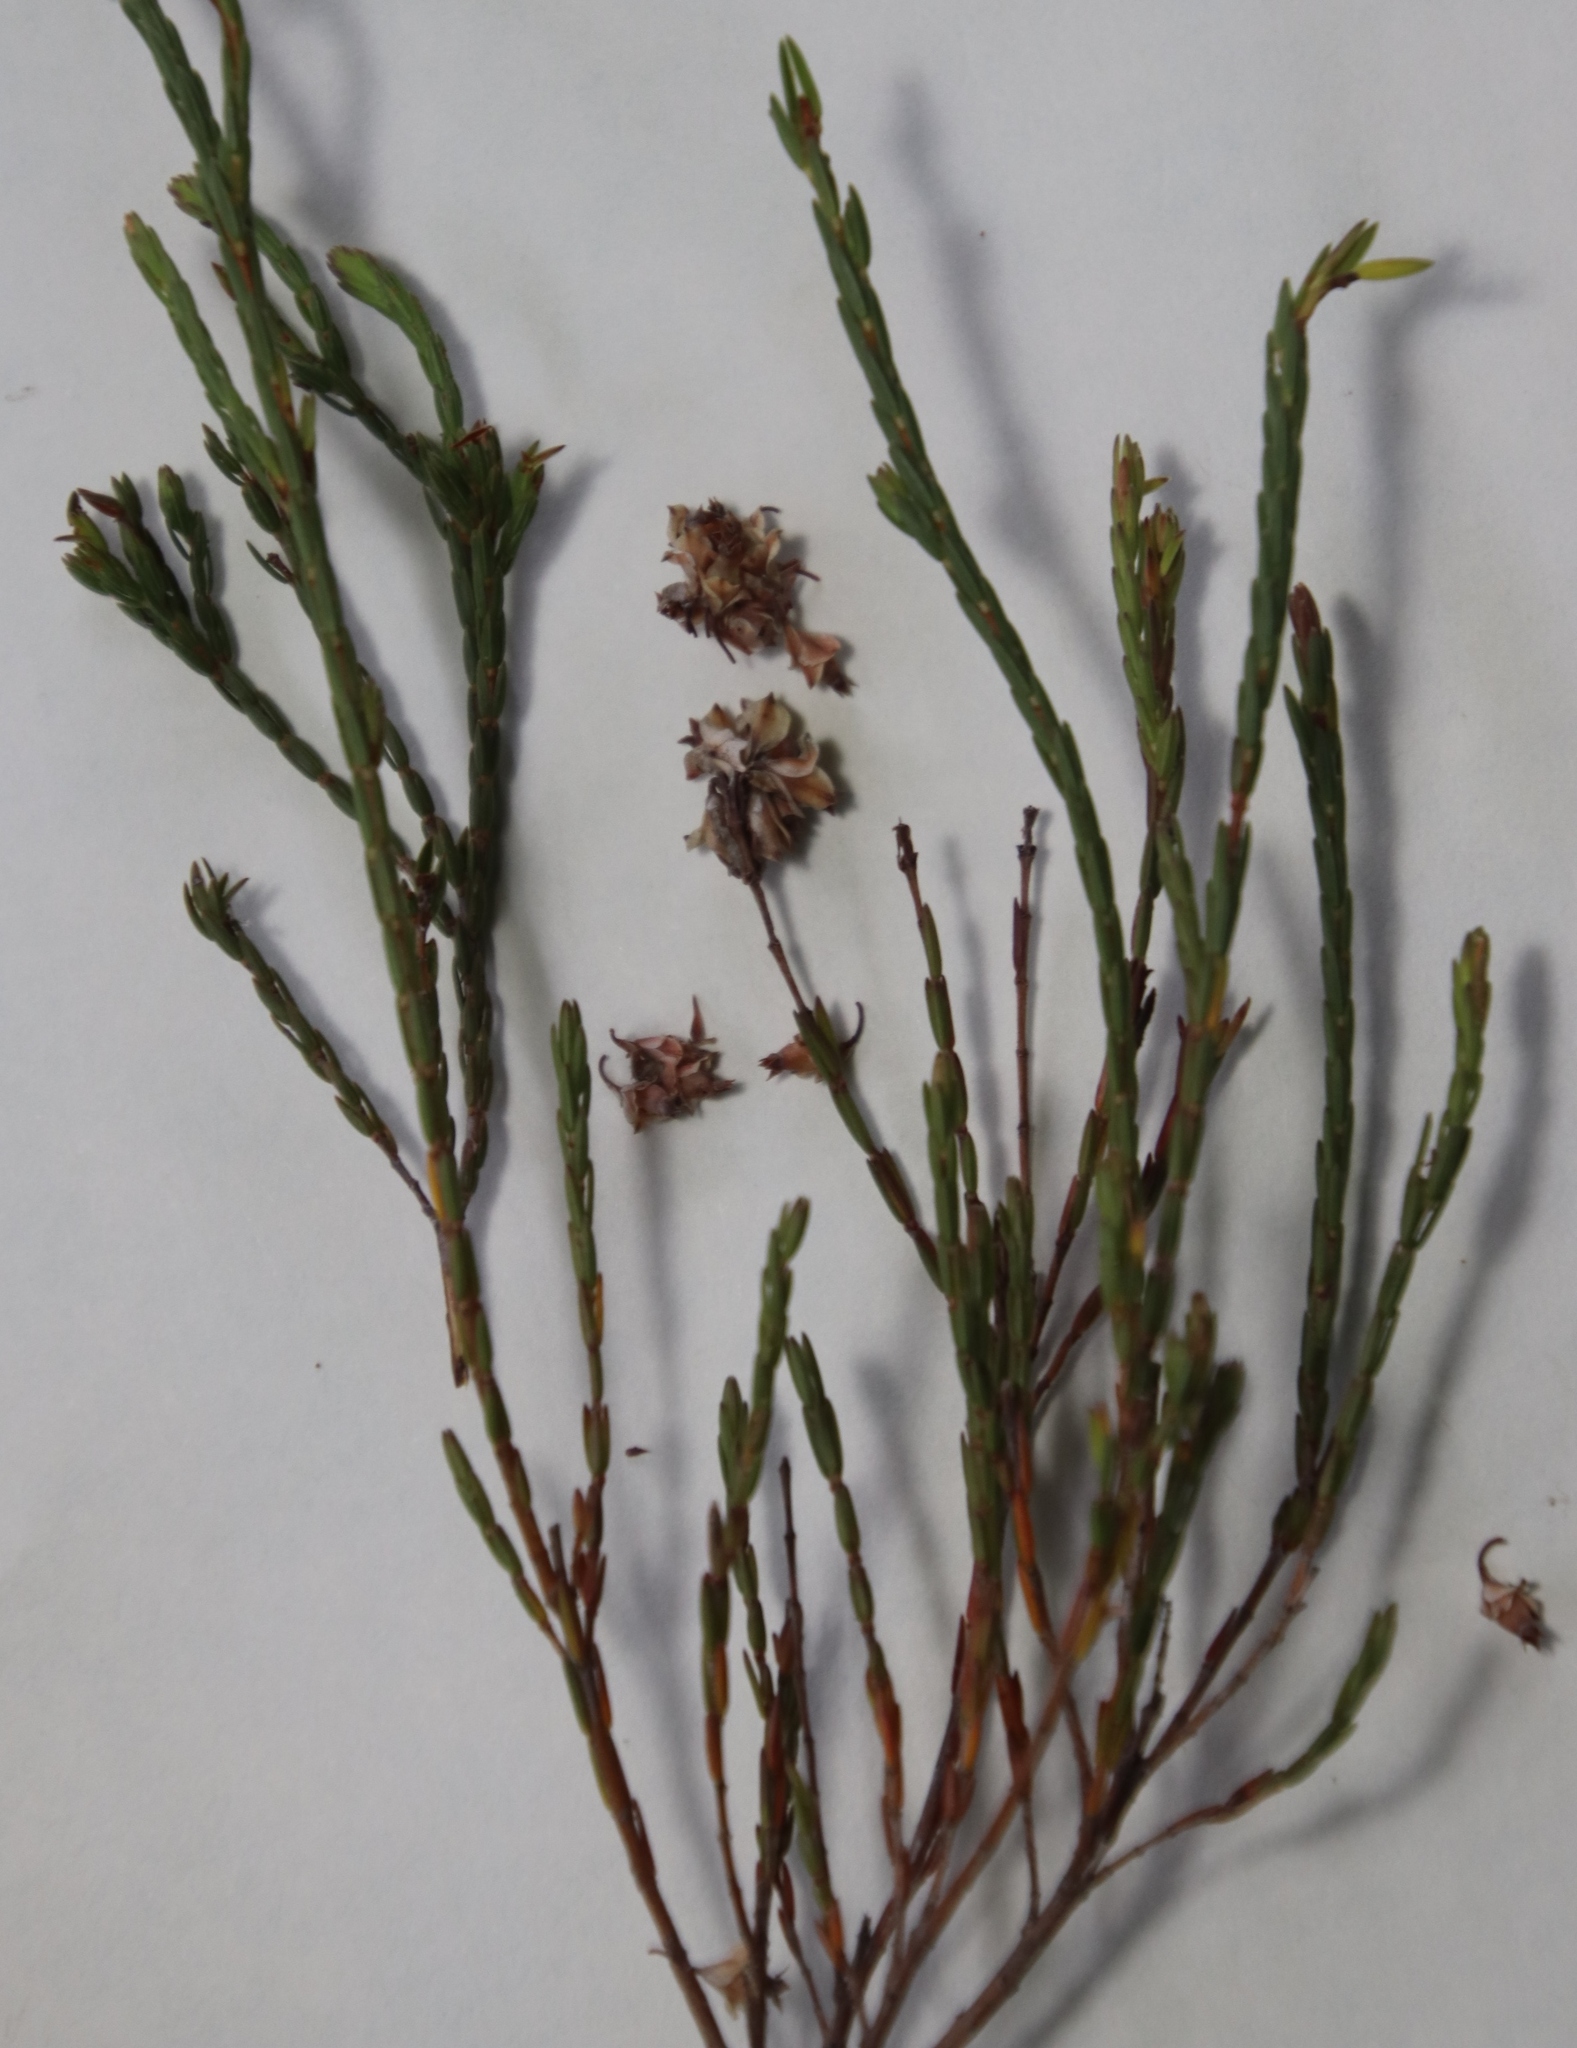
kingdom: Plantae
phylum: Tracheophyta
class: Magnoliopsida
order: Ericales
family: Ericaceae
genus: Erica
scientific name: Erica corifolia
